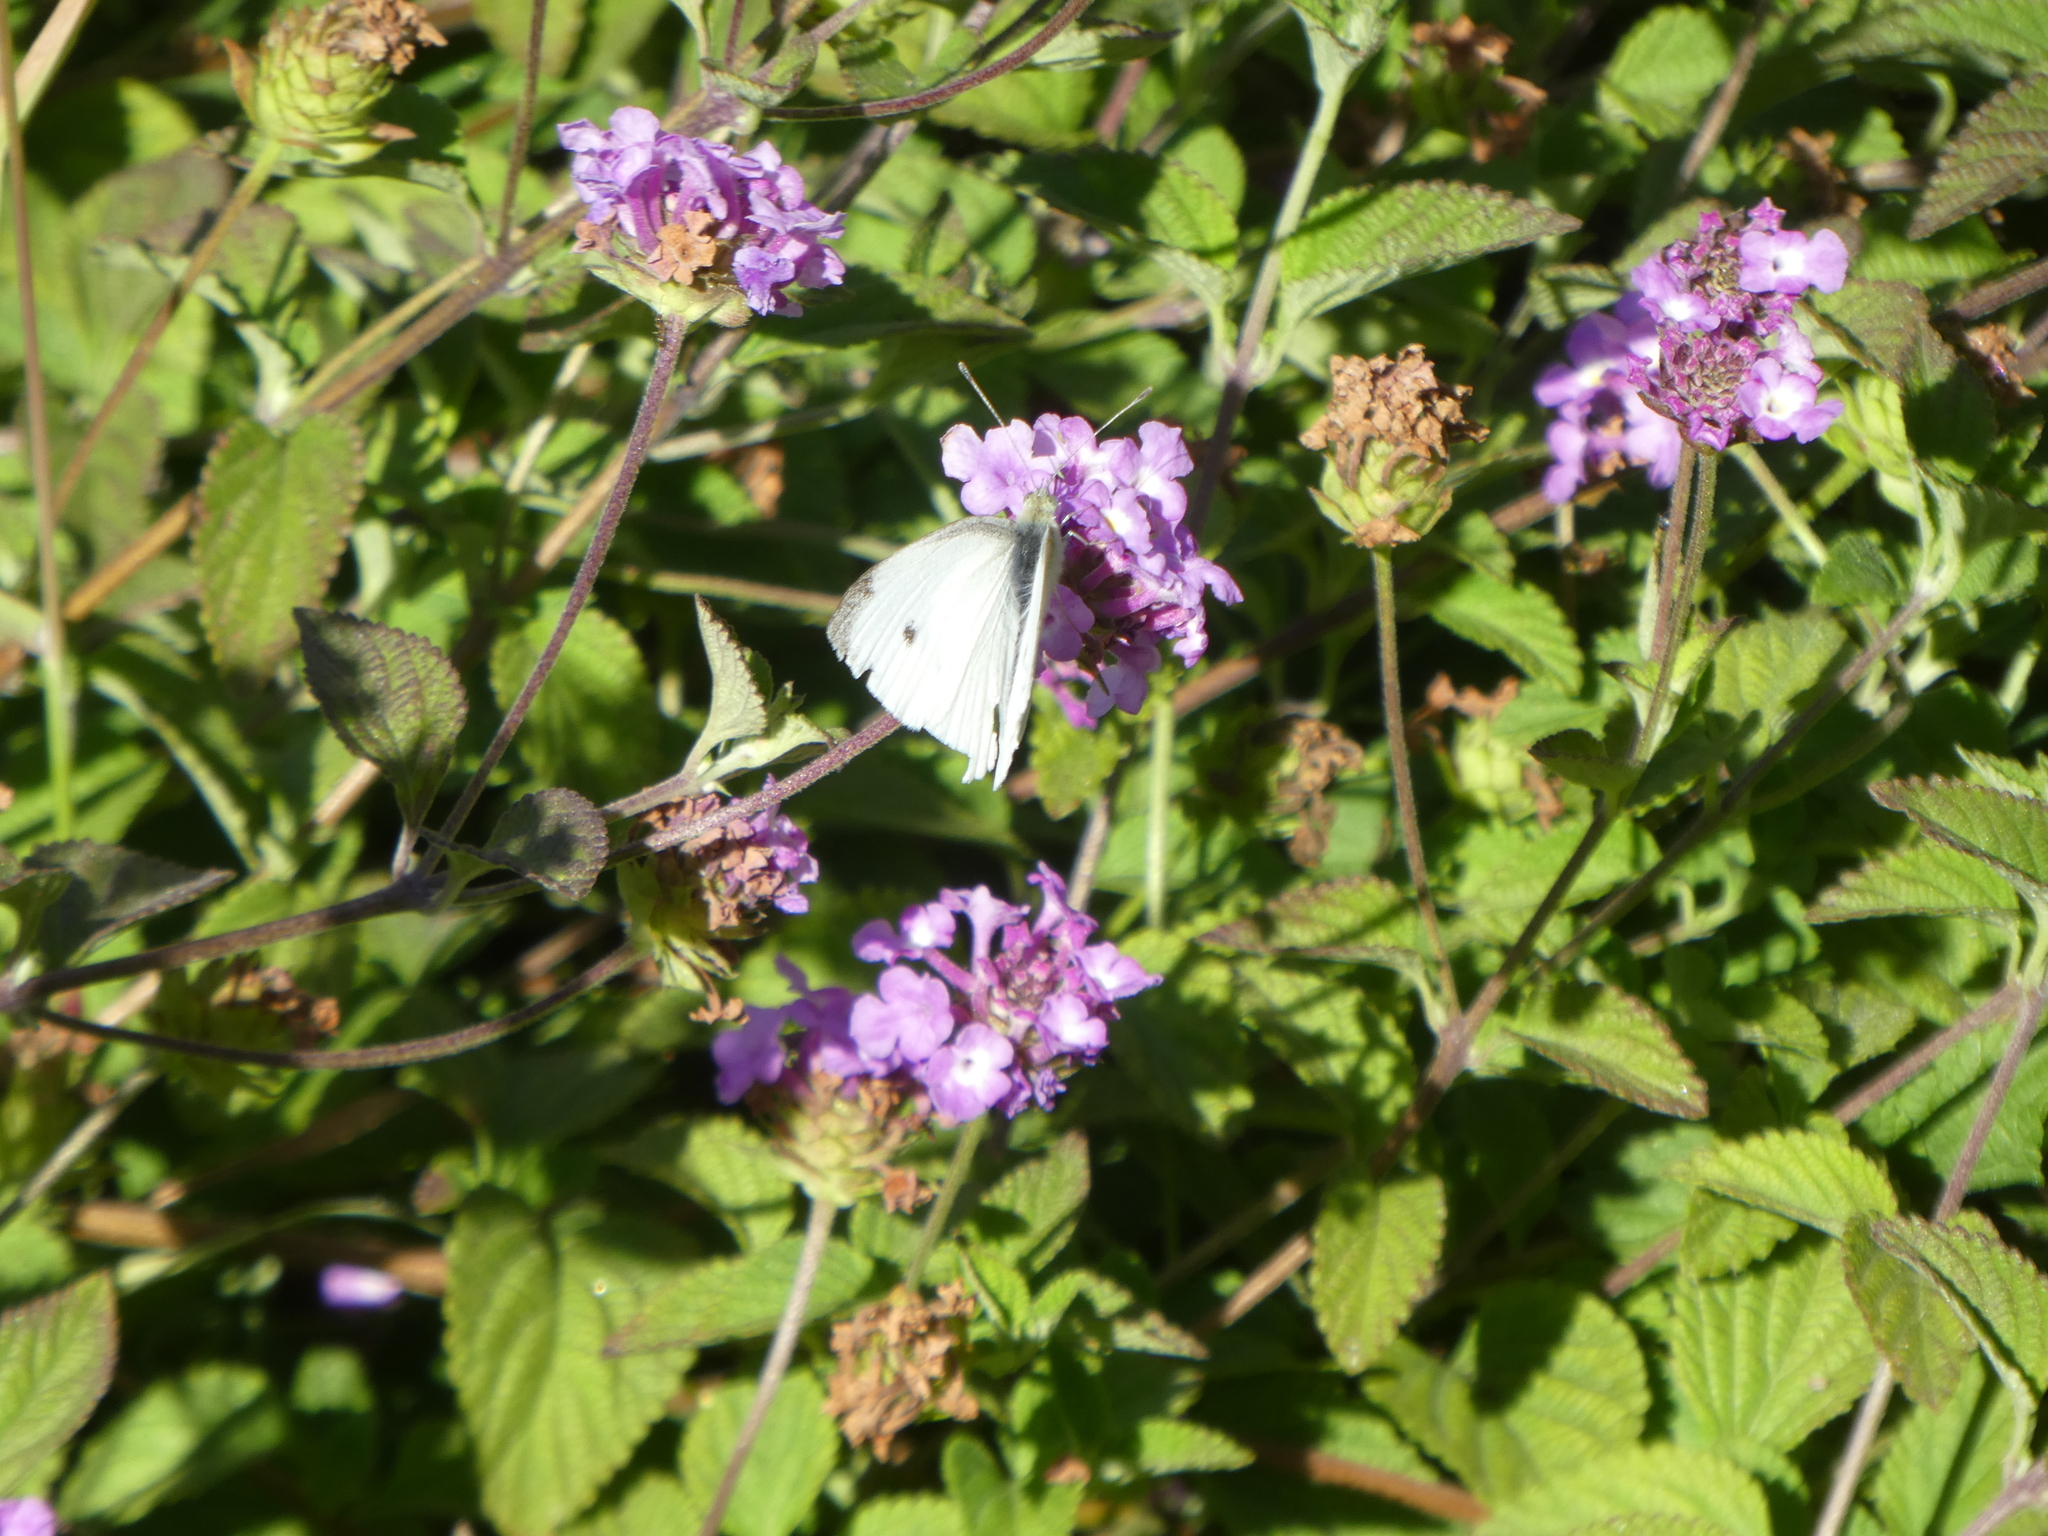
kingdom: Animalia
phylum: Arthropoda
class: Insecta
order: Lepidoptera
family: Pieridae
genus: Pieris
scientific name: Pieris rapae
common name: Small white
